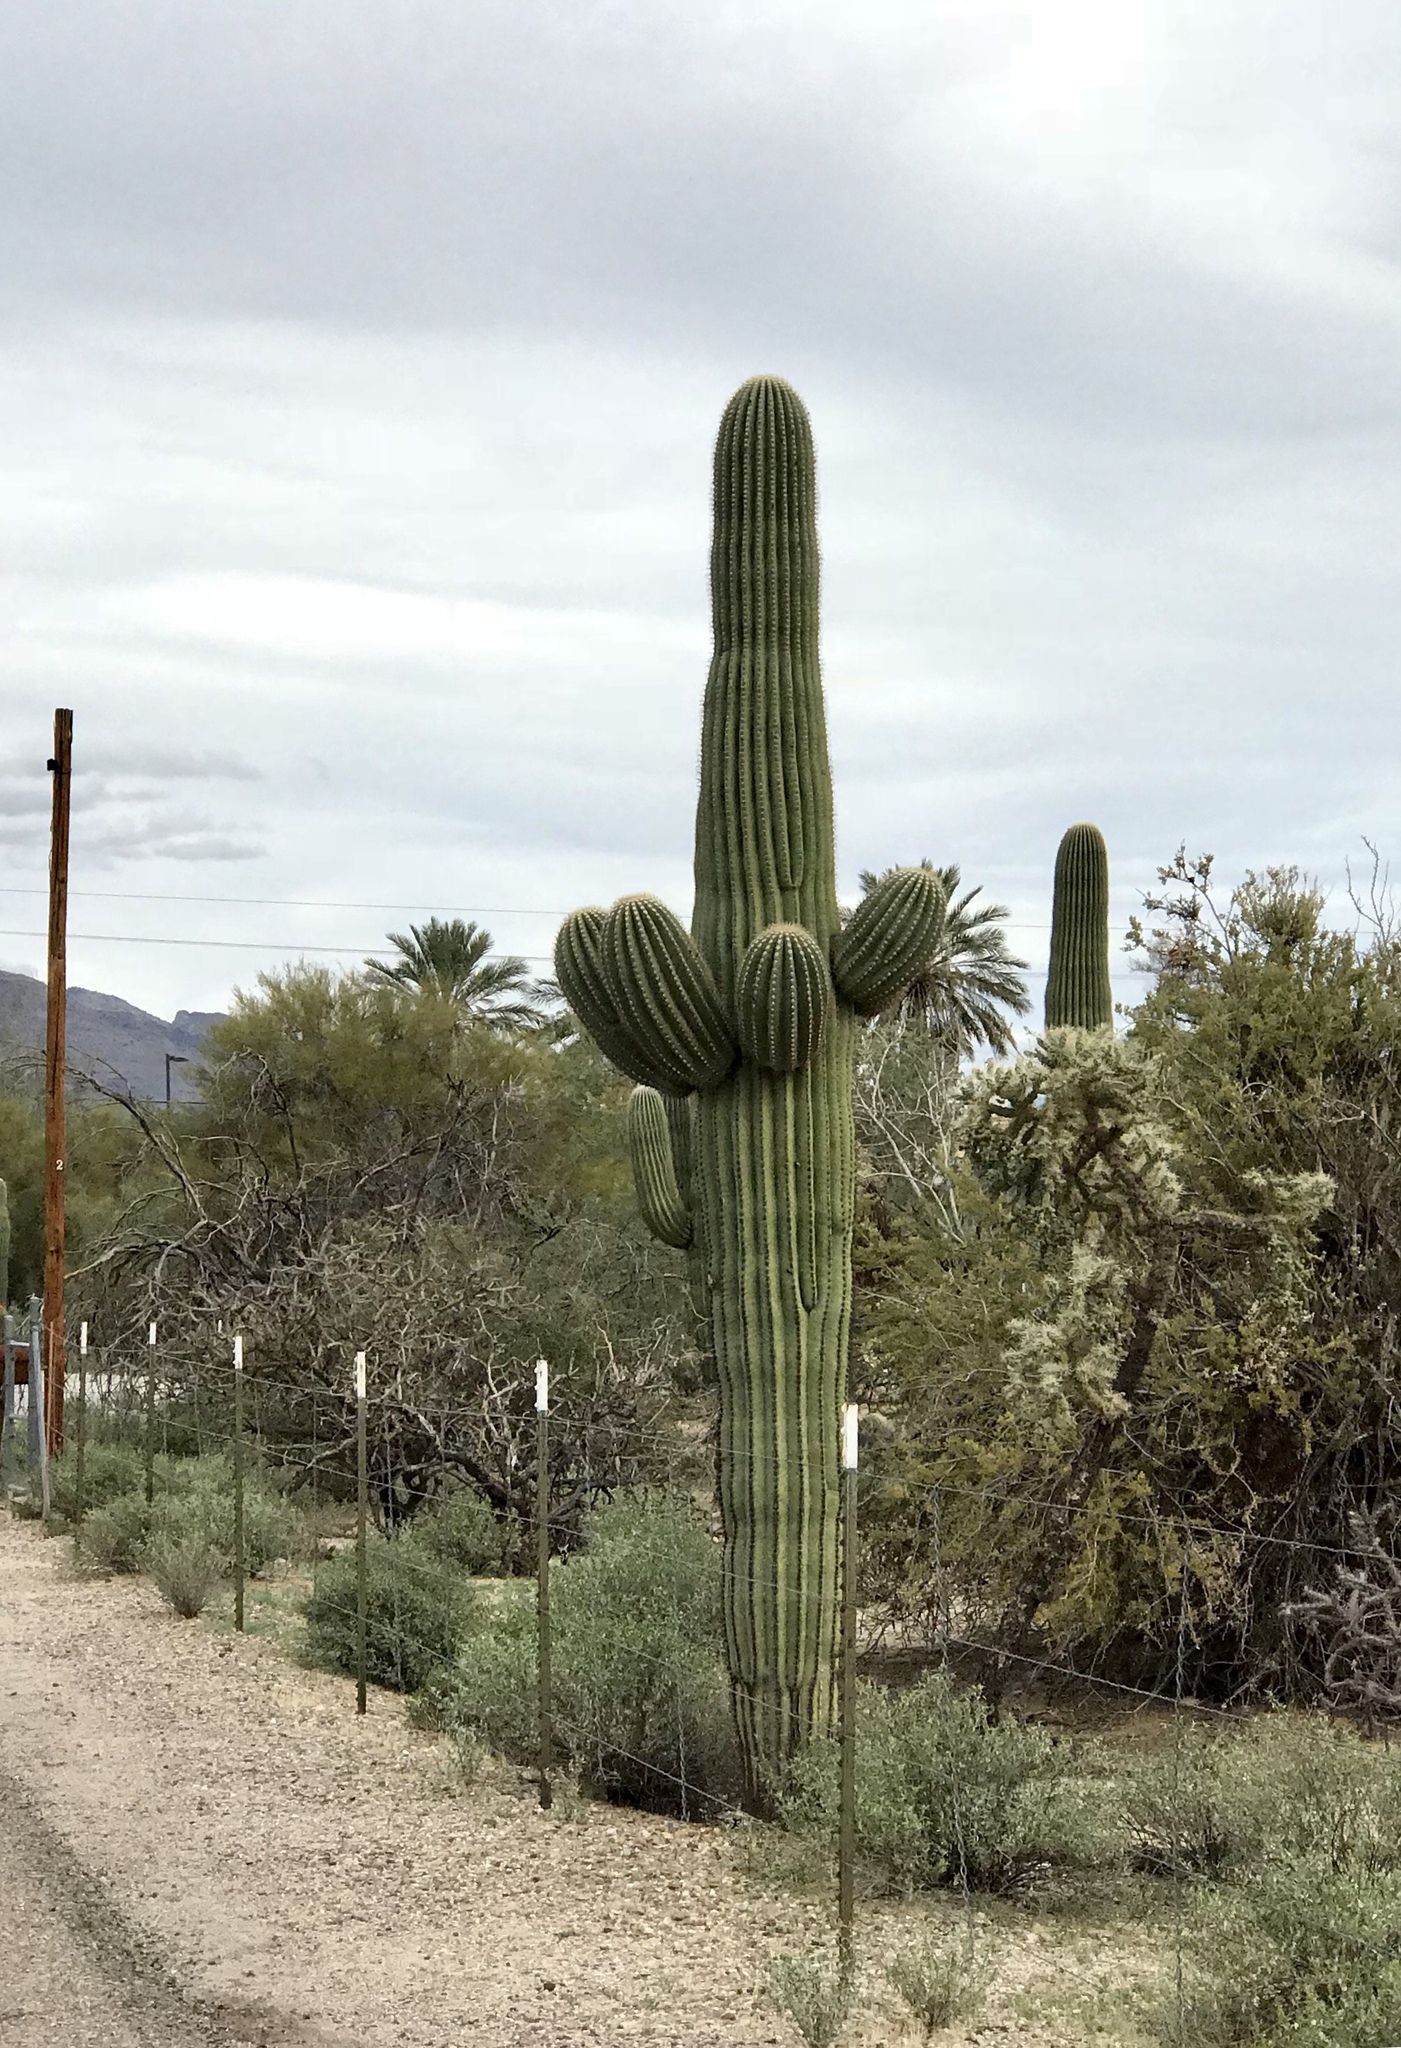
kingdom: Plantae
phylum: Tracheophyta
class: Magnoliopsida
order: Caryophyllales
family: Cactaceae
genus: Carnegiea
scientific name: Carnegiea gigantea
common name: Saguaro
